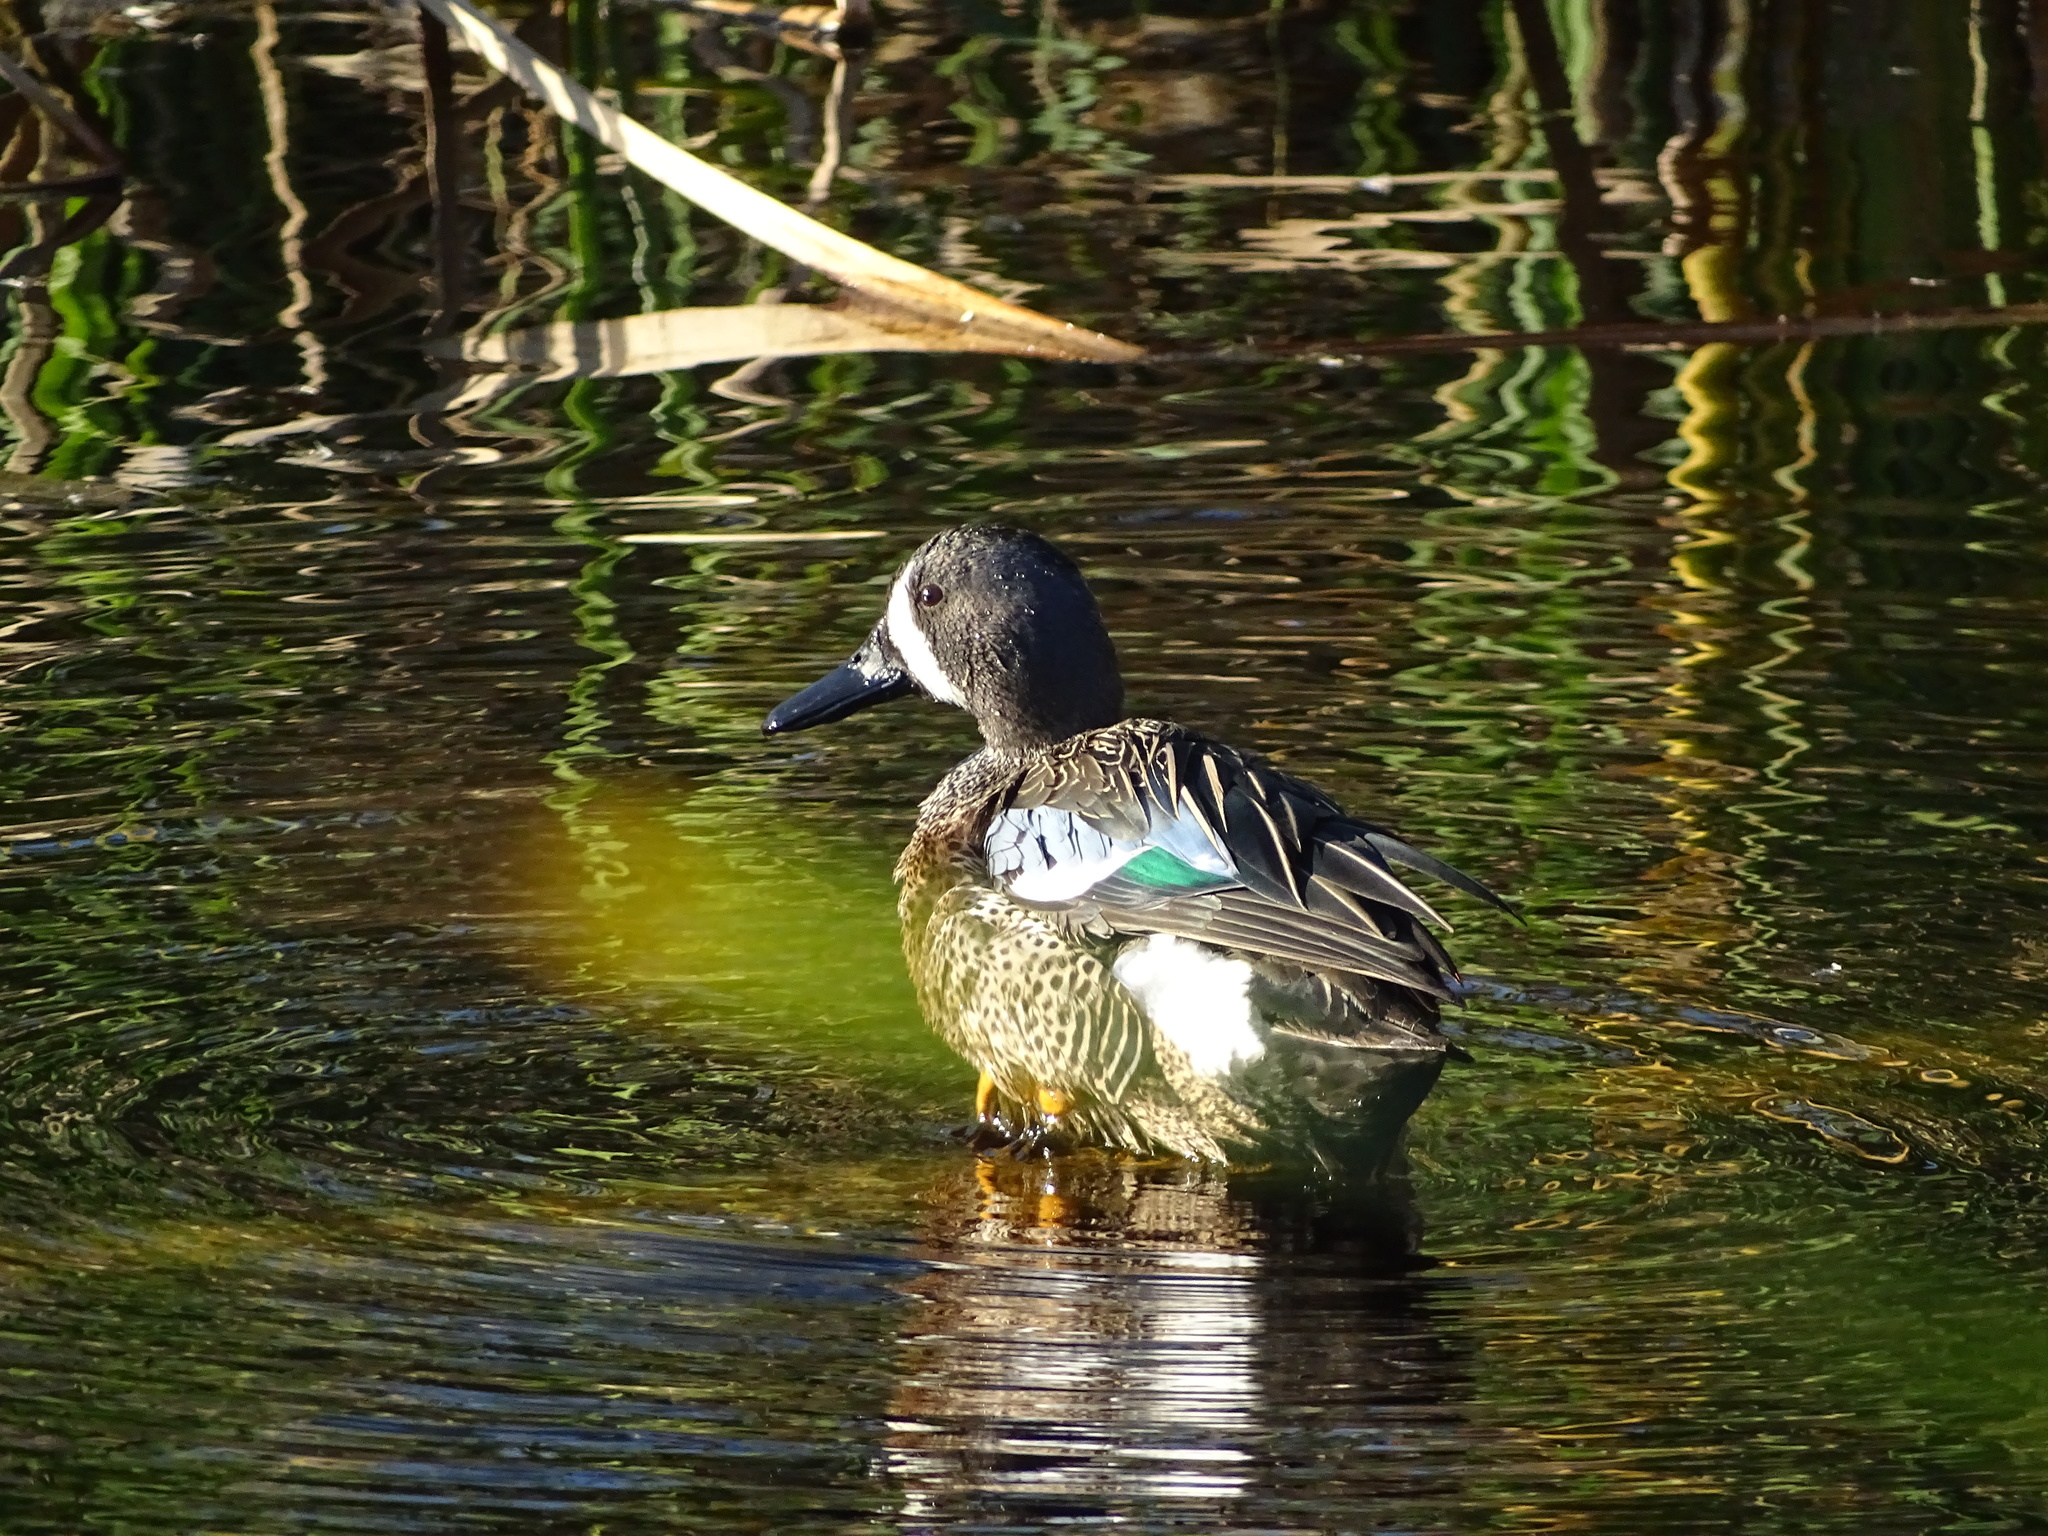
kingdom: Animalia
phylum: Chordata
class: Aves
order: Anseriformes
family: Anatidae
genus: Spatula
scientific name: Spatula discors
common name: Blue-winged teal
